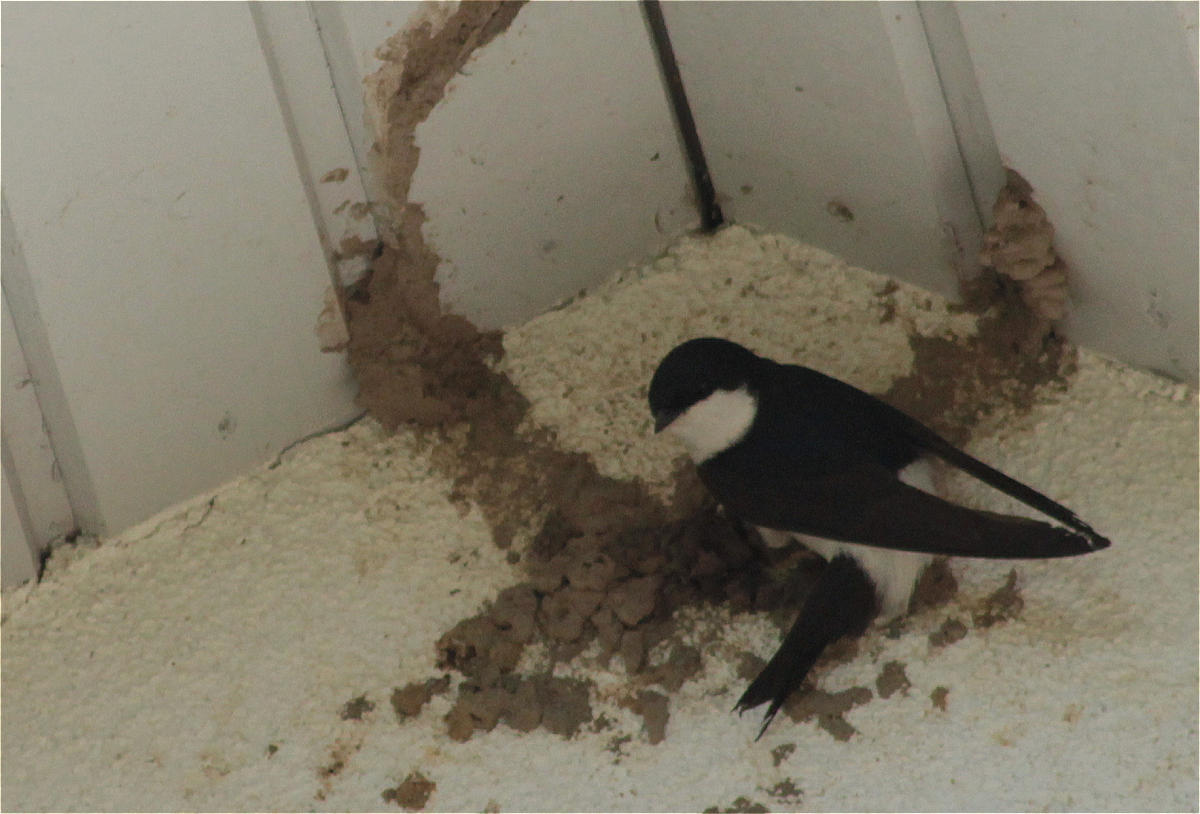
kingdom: Animalia
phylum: Chordata
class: Aves
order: Passeriformes
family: Hirundinidae
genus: Delichon
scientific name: Delichon urbicum
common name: Common house martin
